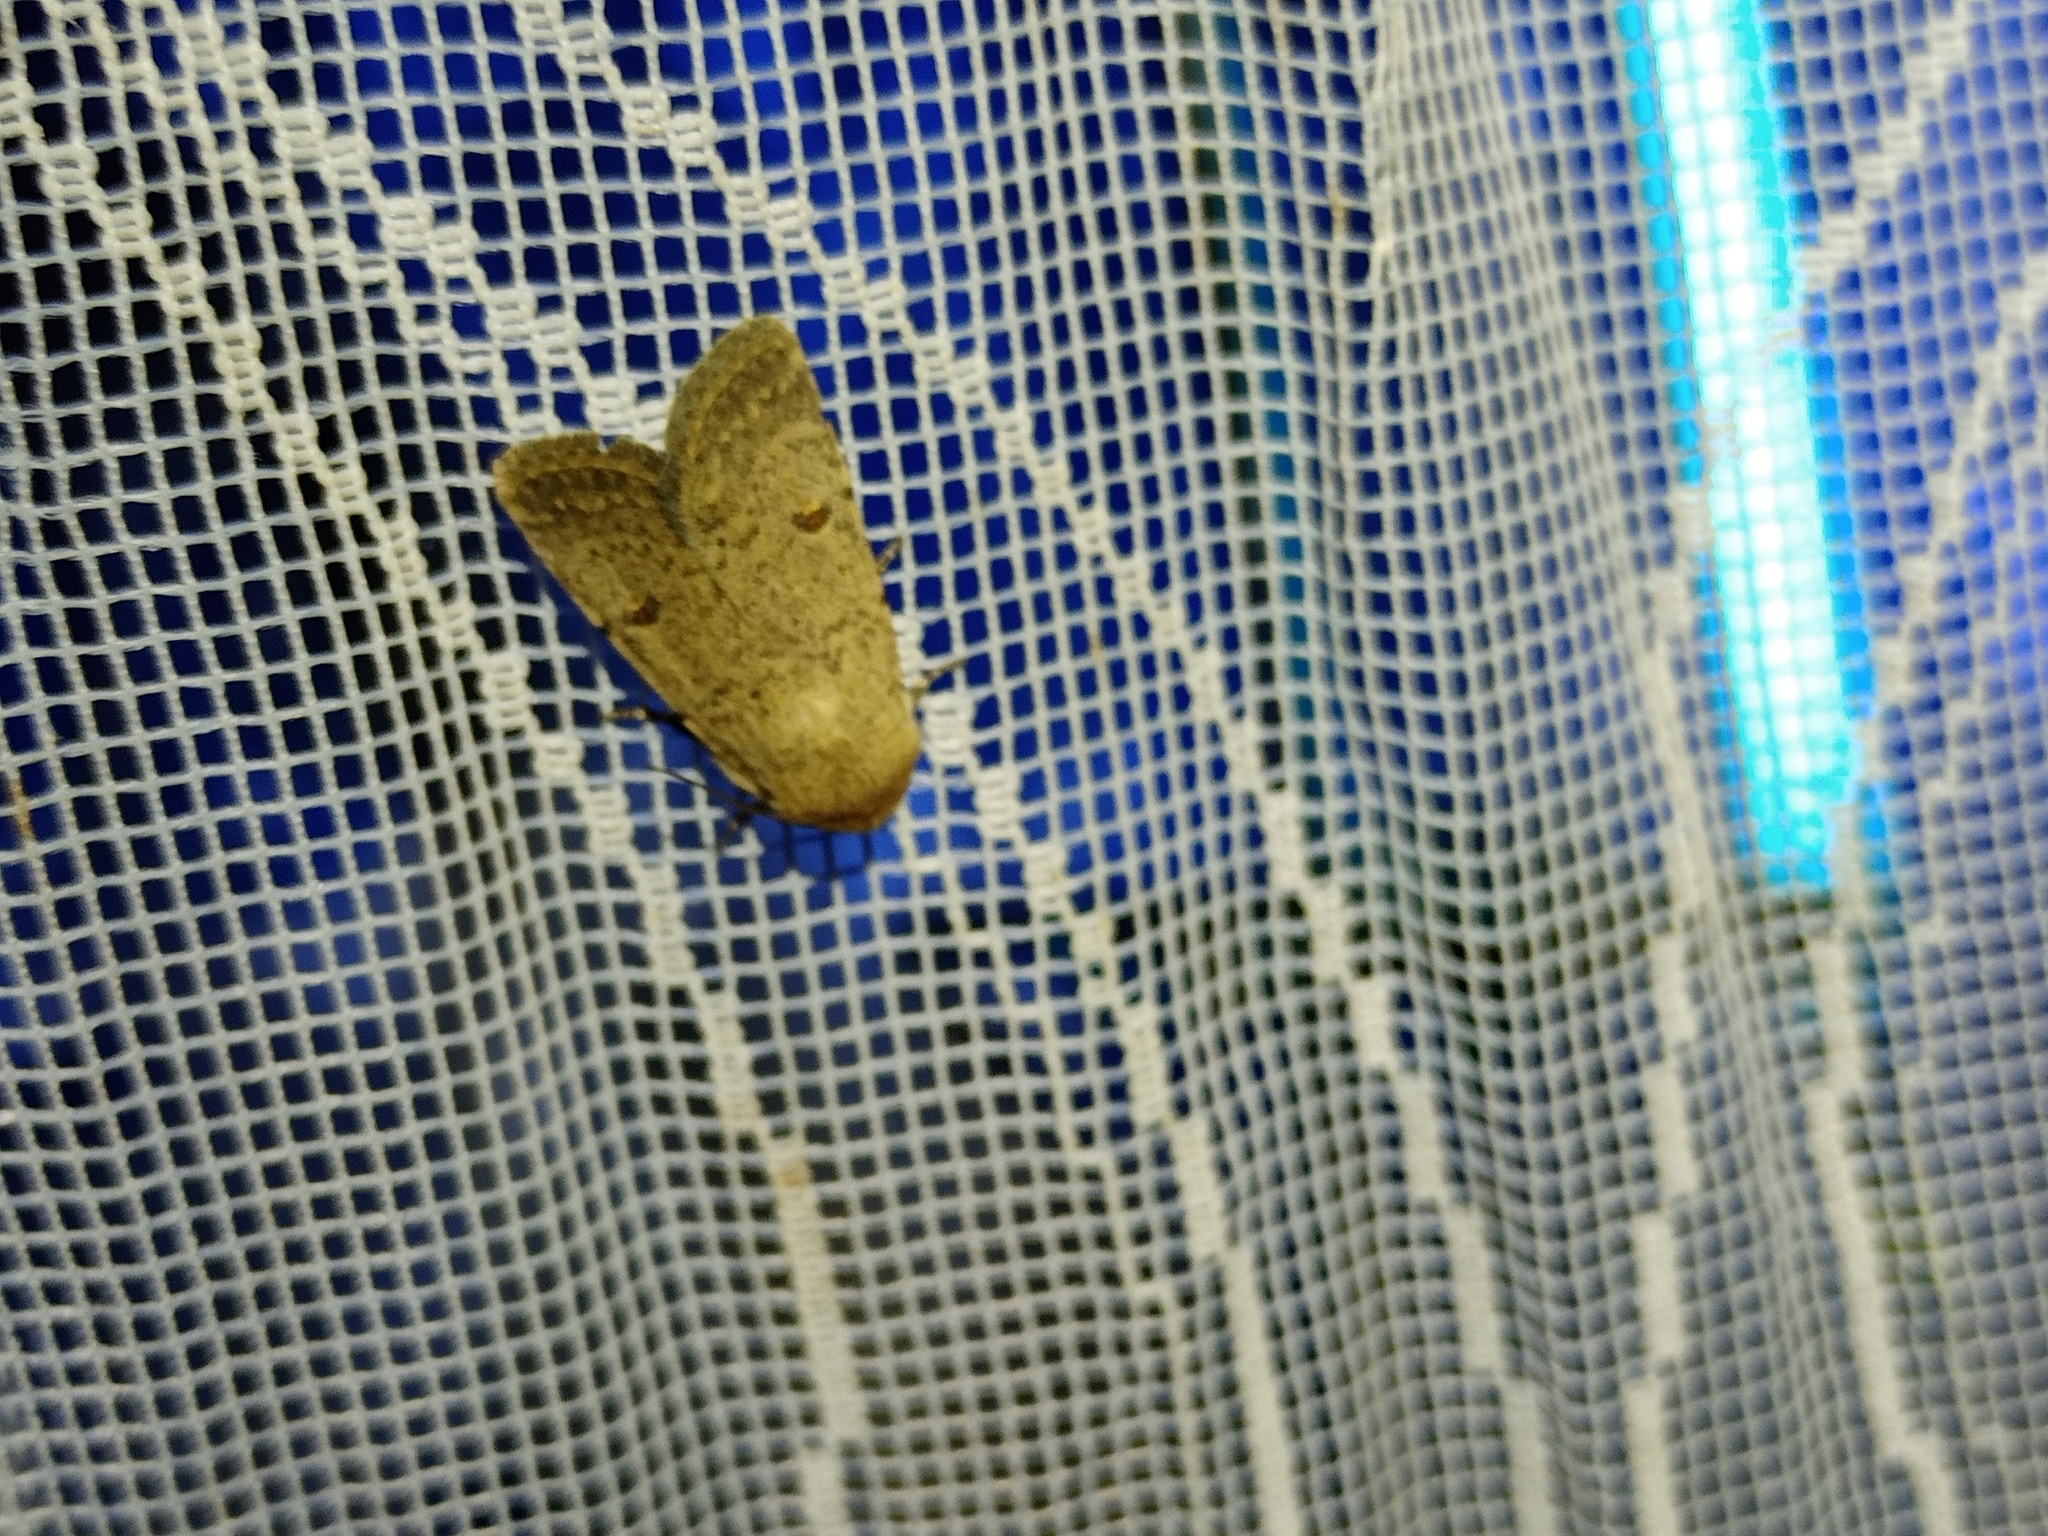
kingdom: Animalia
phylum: Arthropoda
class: Insecta
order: Lepidoptera
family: Noctuidae
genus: Caradrina
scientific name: Caradrina aspersa
